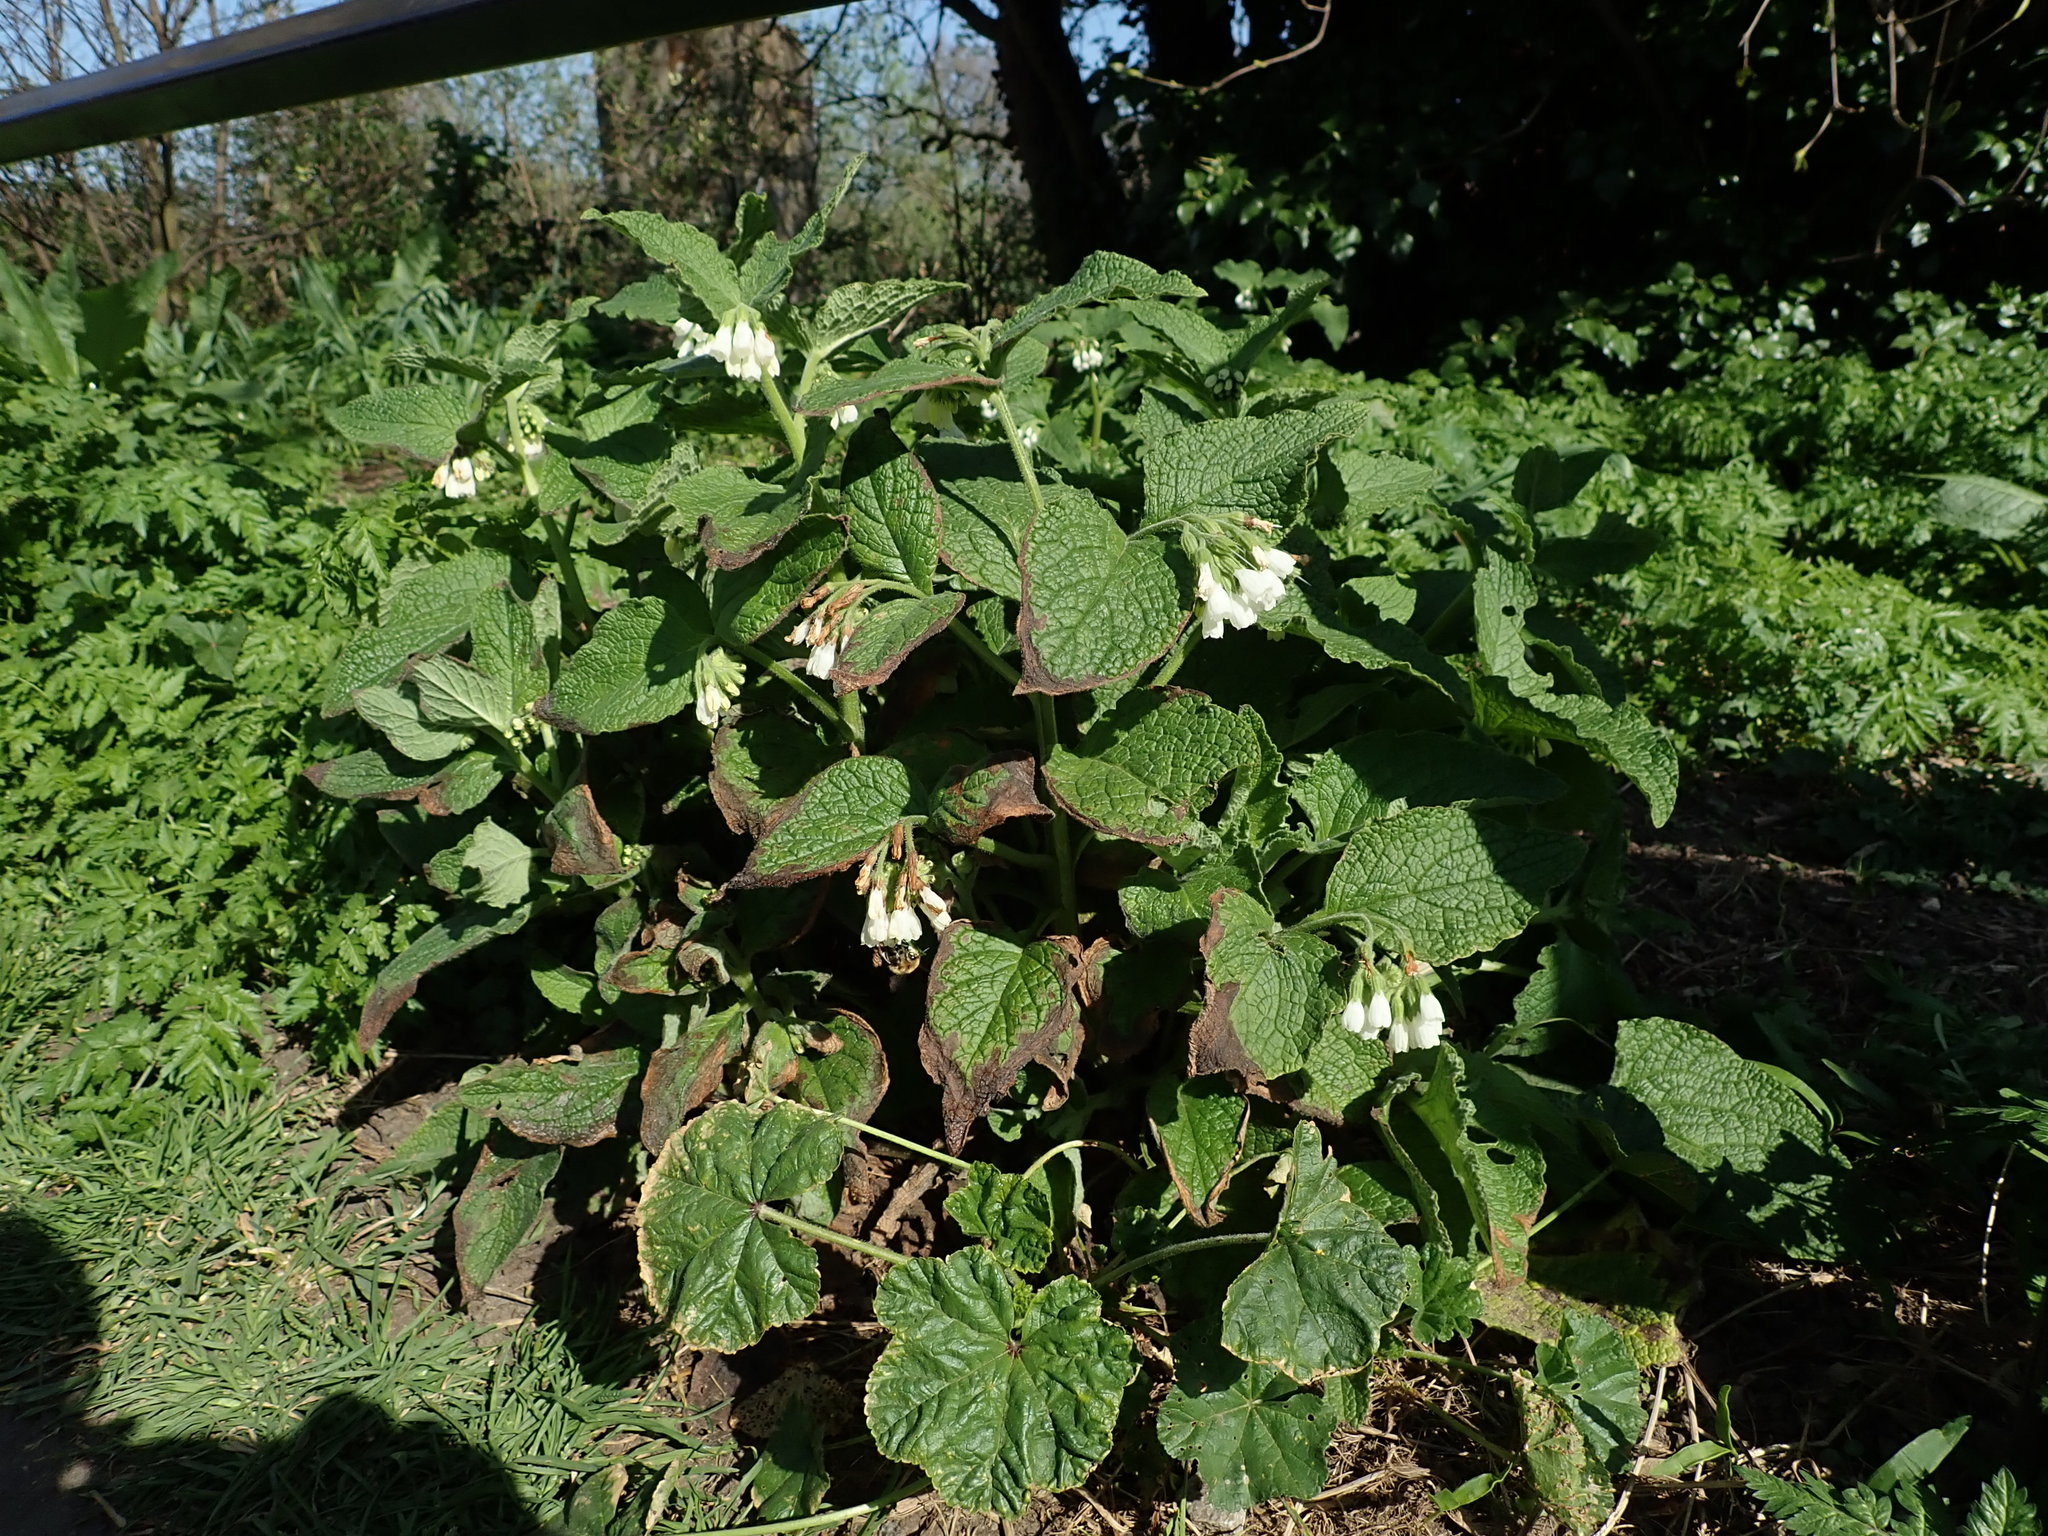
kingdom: Plantae
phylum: Tracheophyta
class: Magnoliopsida
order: Boraginales
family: Boraginaceae
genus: Symphytum
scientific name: Symphytum orientale
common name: White comfrey
